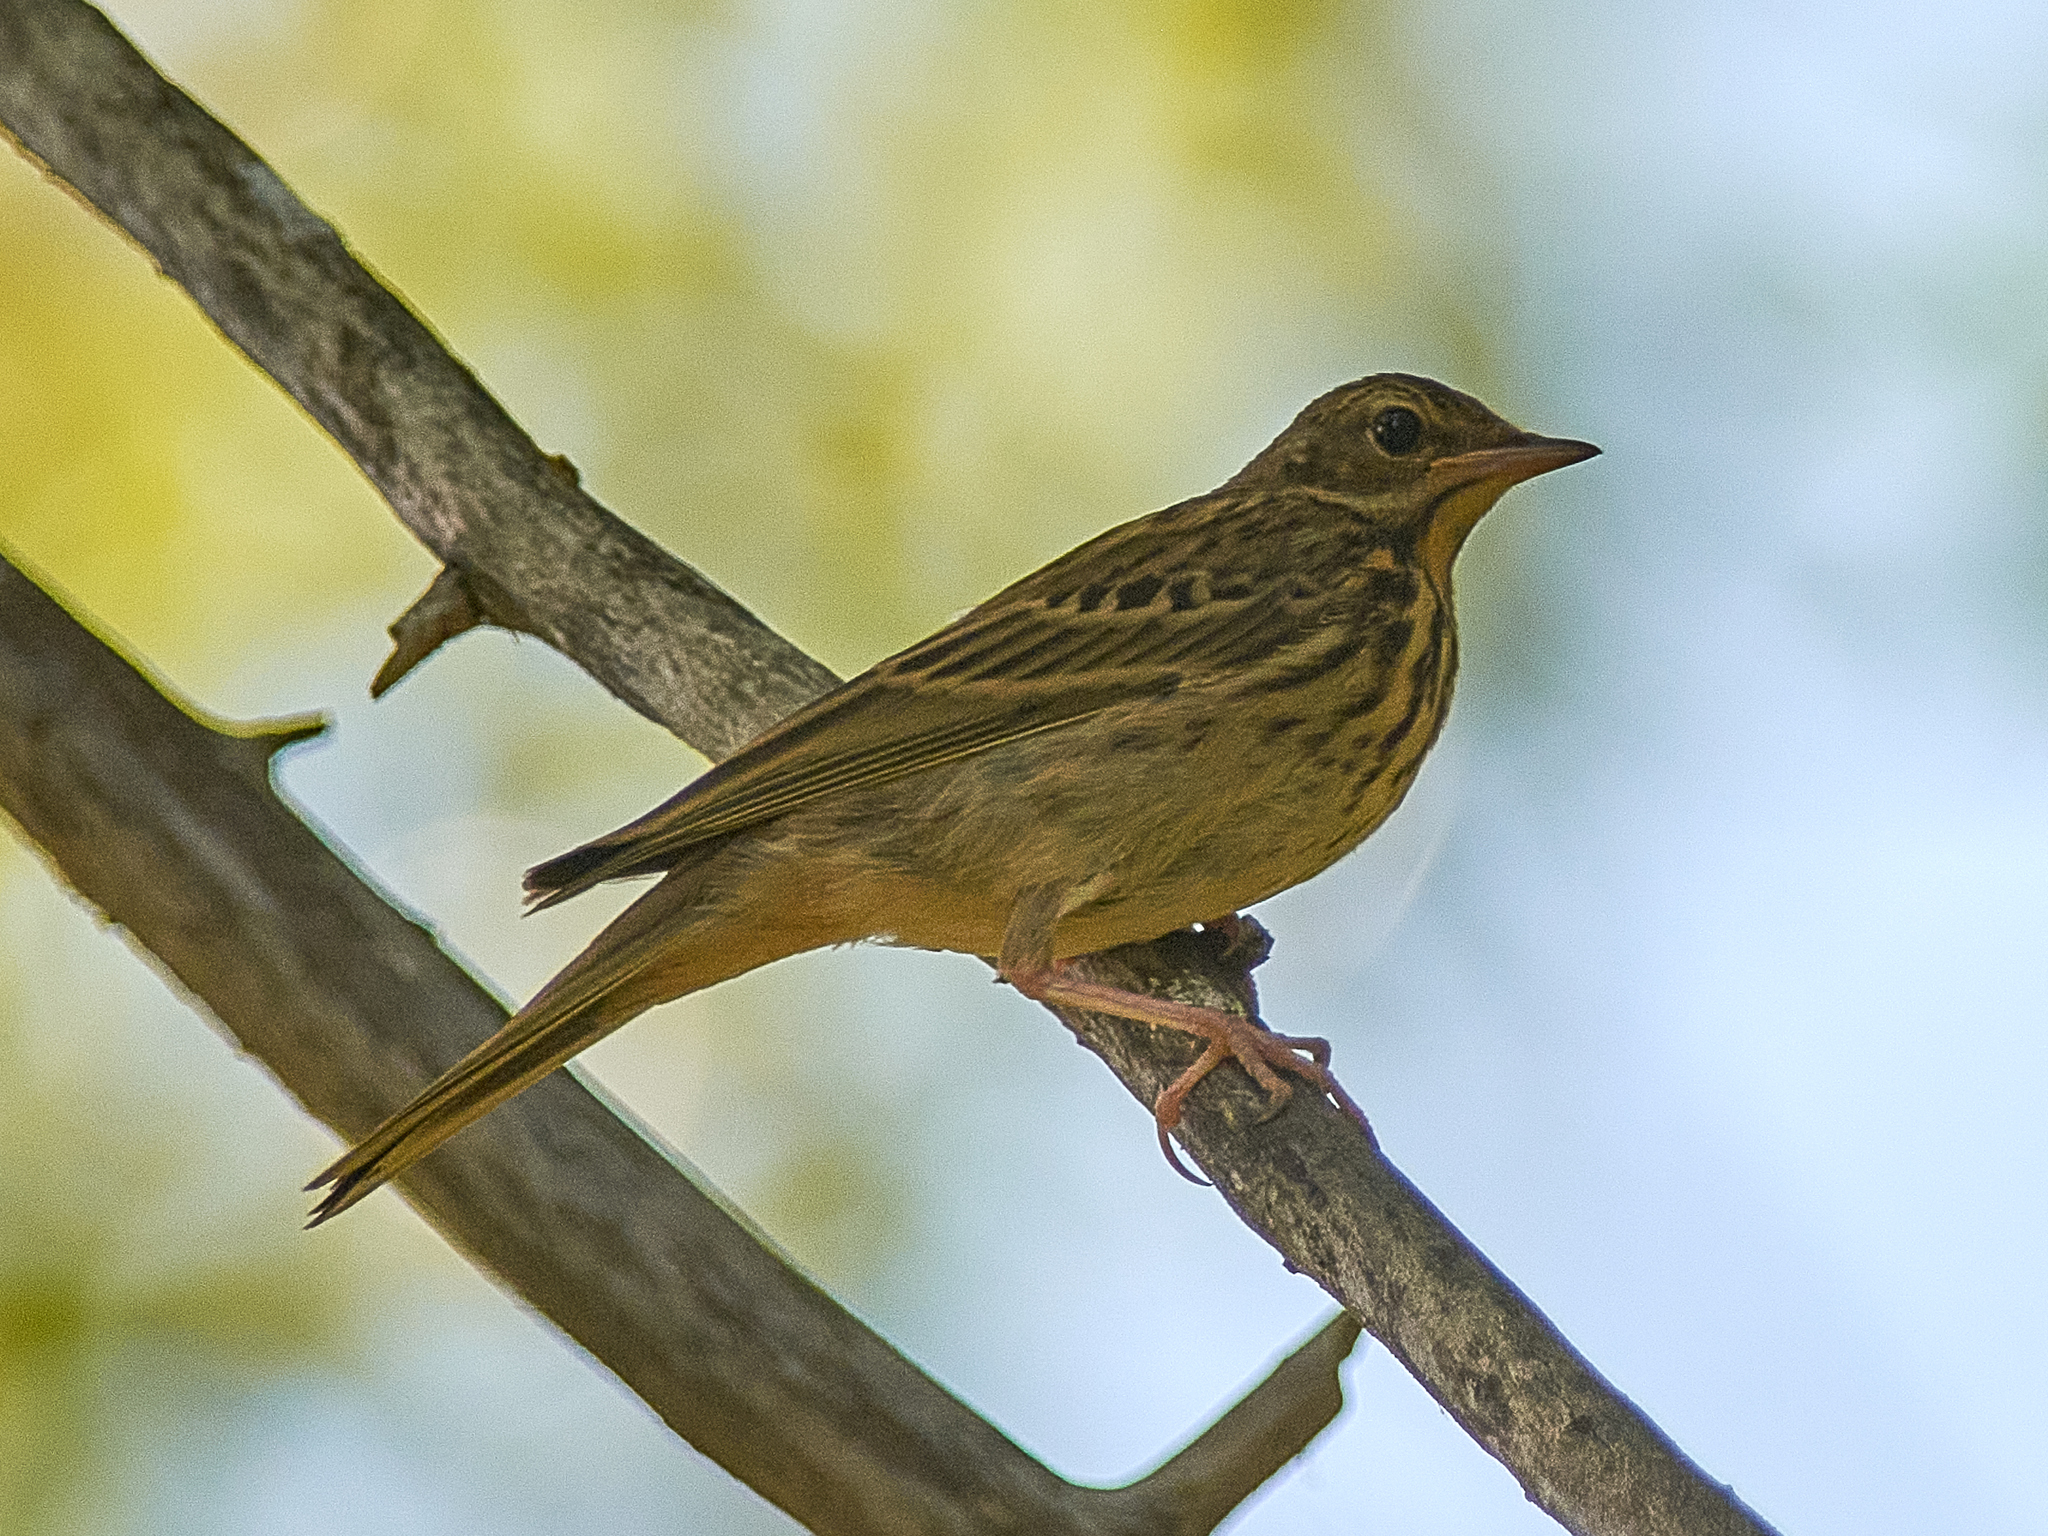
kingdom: Animalia
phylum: Chordata
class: Aves
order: Passeriformes
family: Motacillidae
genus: Anthus
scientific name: Anthus trivialis
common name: Tree pipit
